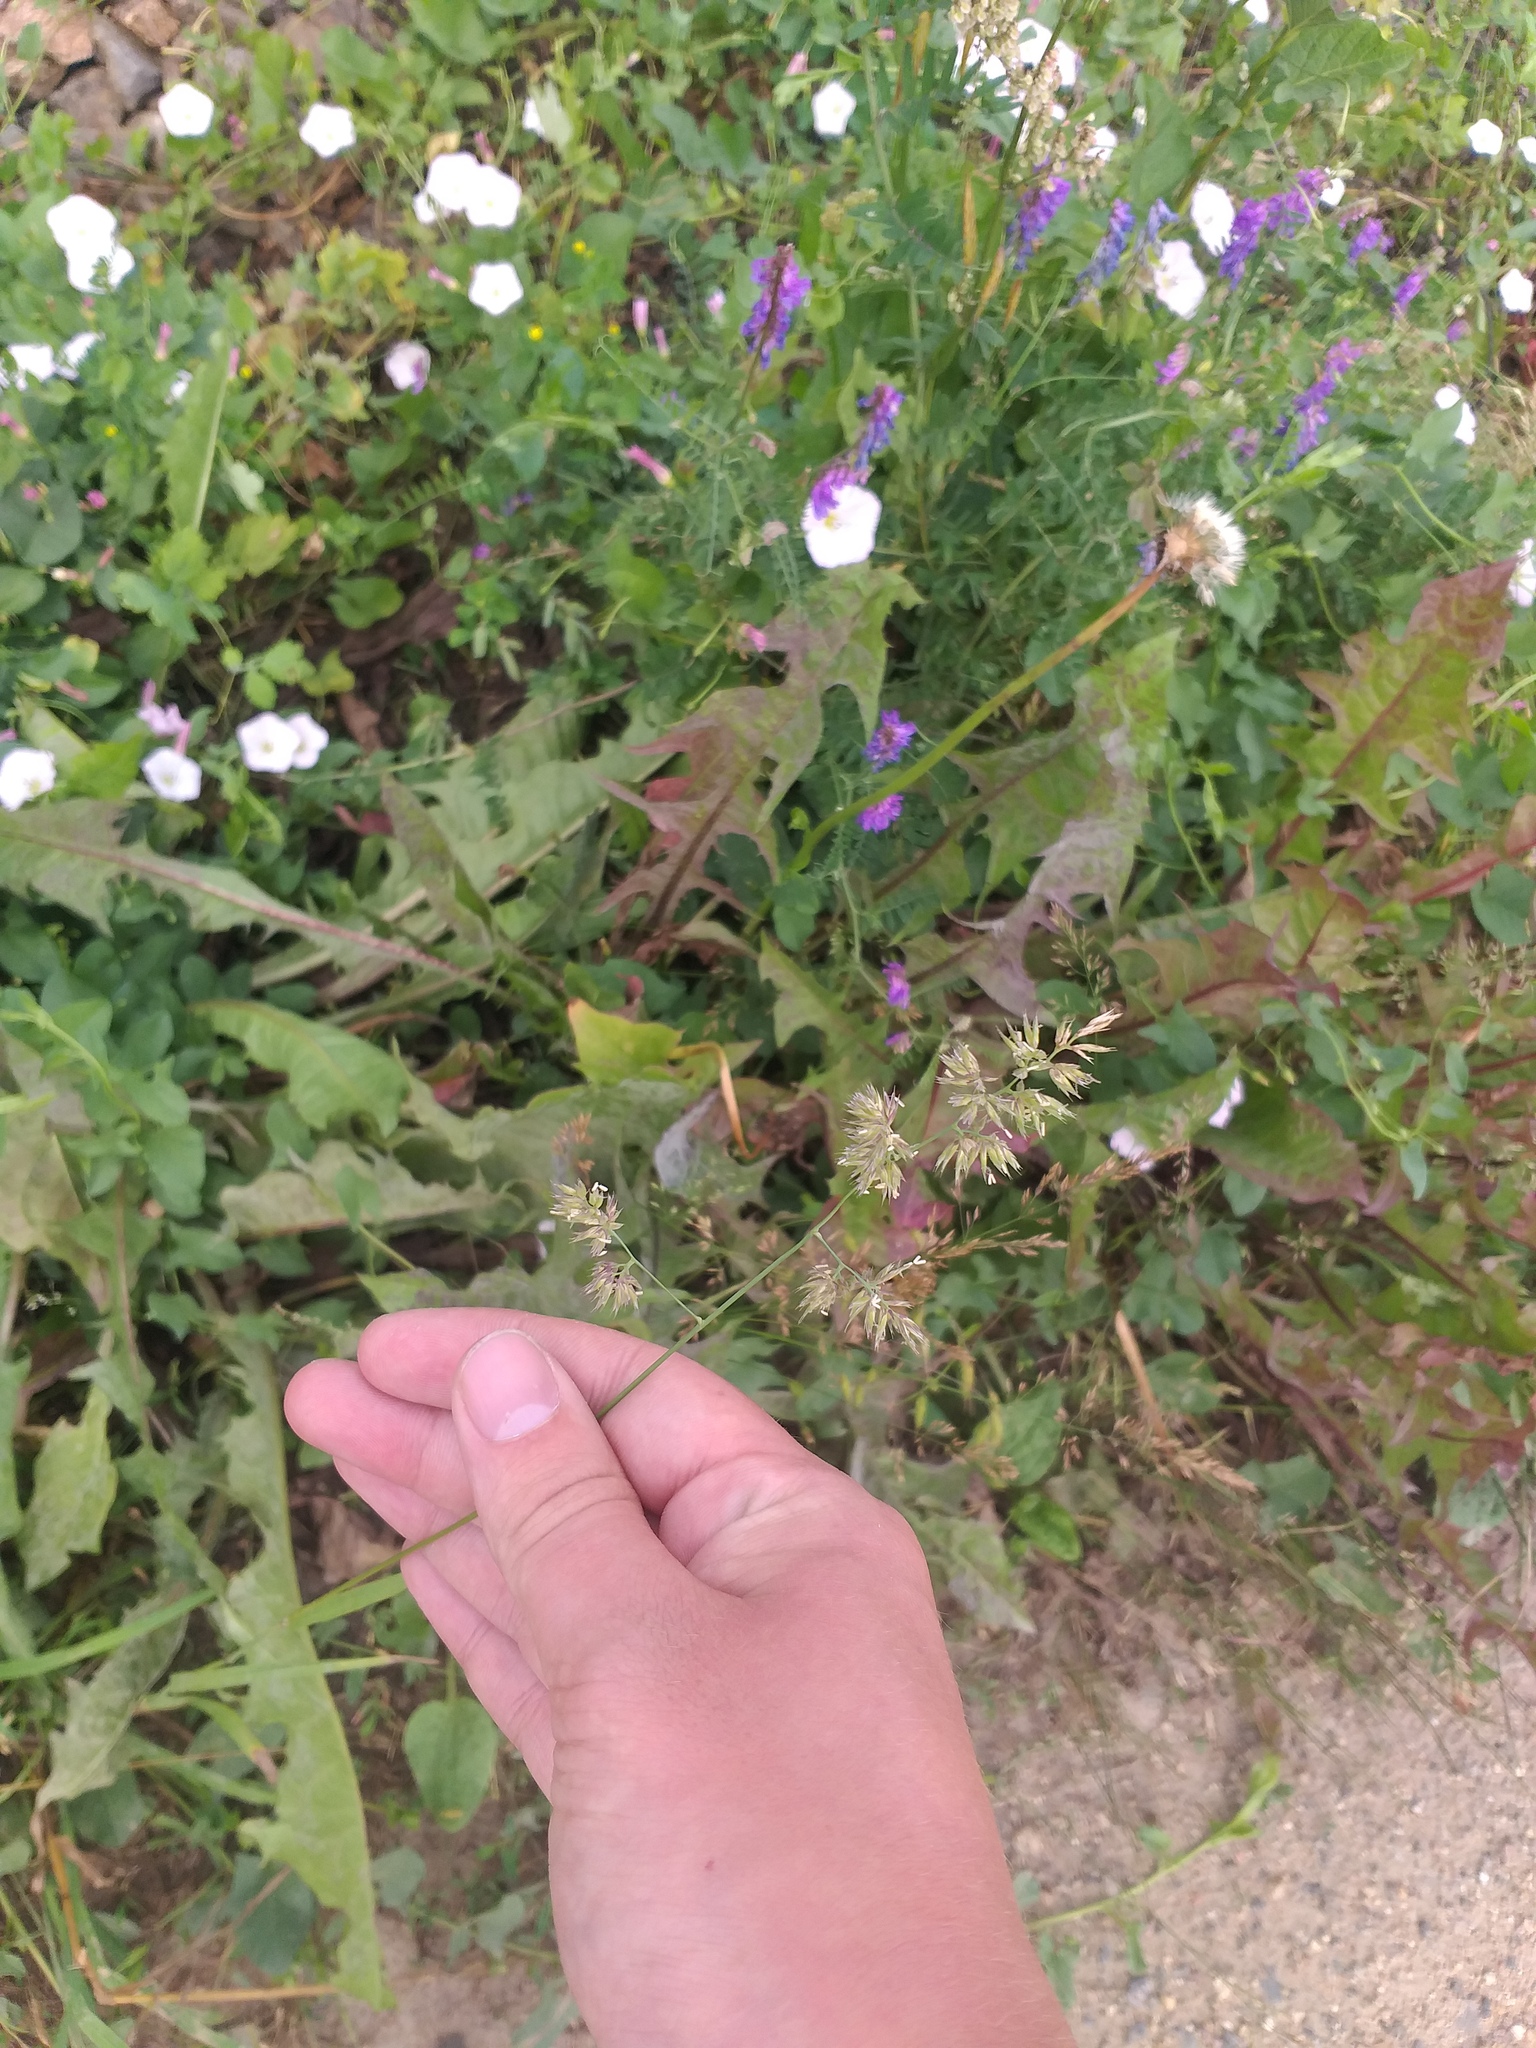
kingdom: Plantae
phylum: Tracheophyta
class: Liliopsida
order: Poales
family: Poaceae
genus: Dactylis
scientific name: Dactylis glomerata
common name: Orchardgrass
